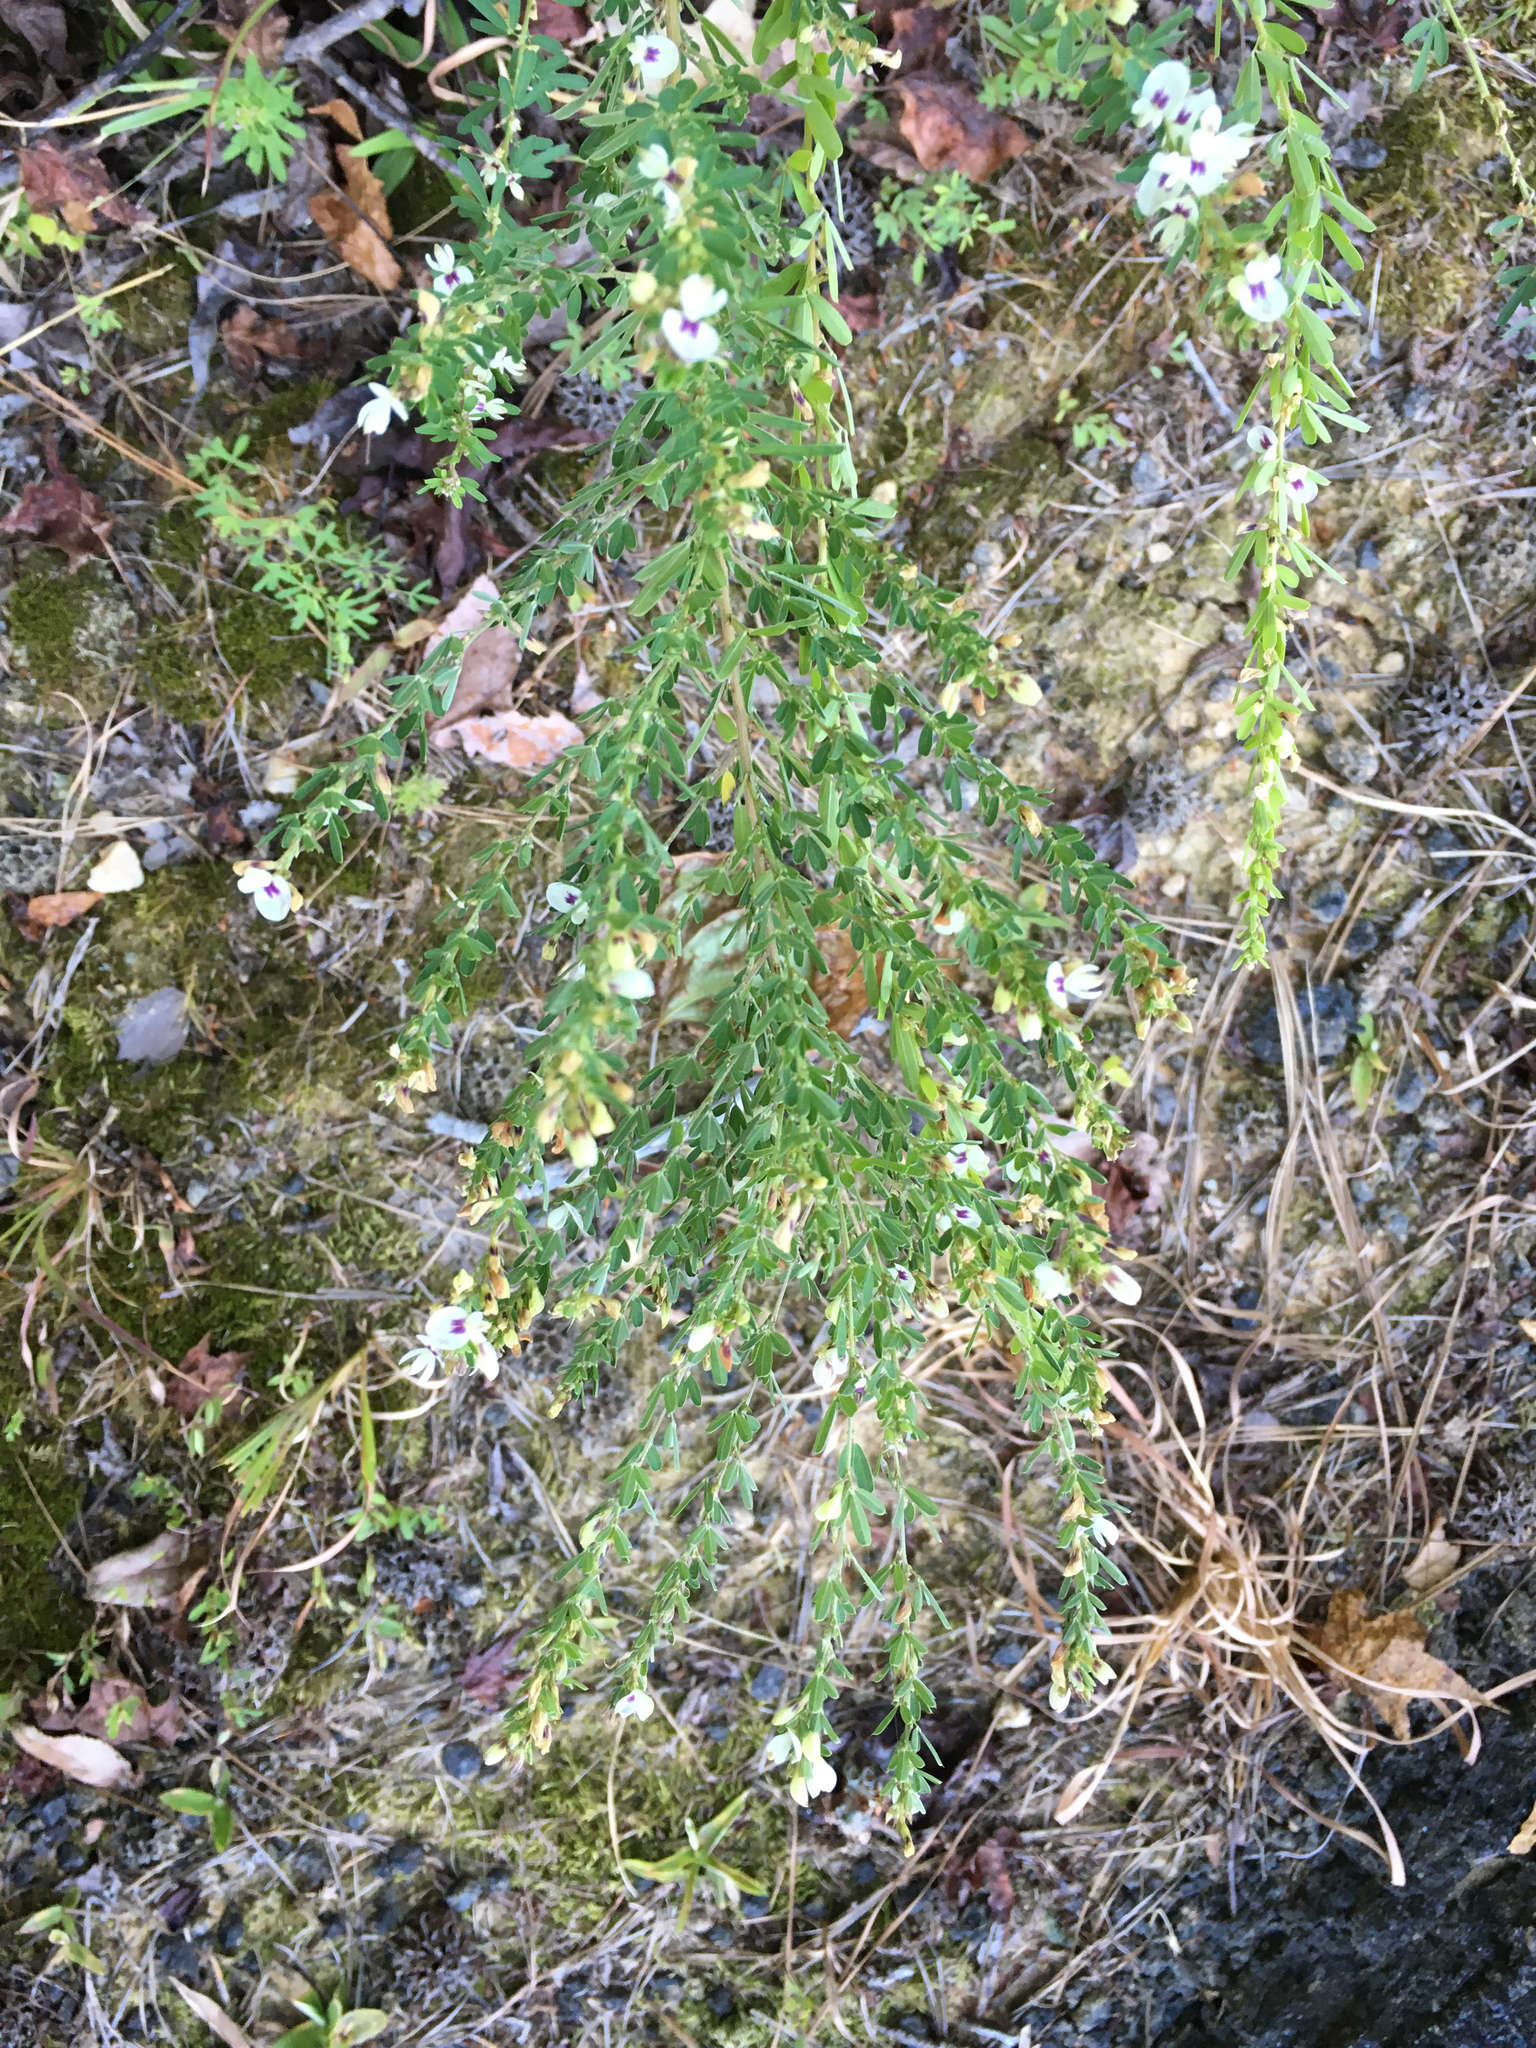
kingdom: Plantae
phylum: Tracheophyta
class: Magnoliopsida
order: Fabales
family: Fabaceae
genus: Lespedeza
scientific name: Lespedeza cuneata
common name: Chinese bush-clover
